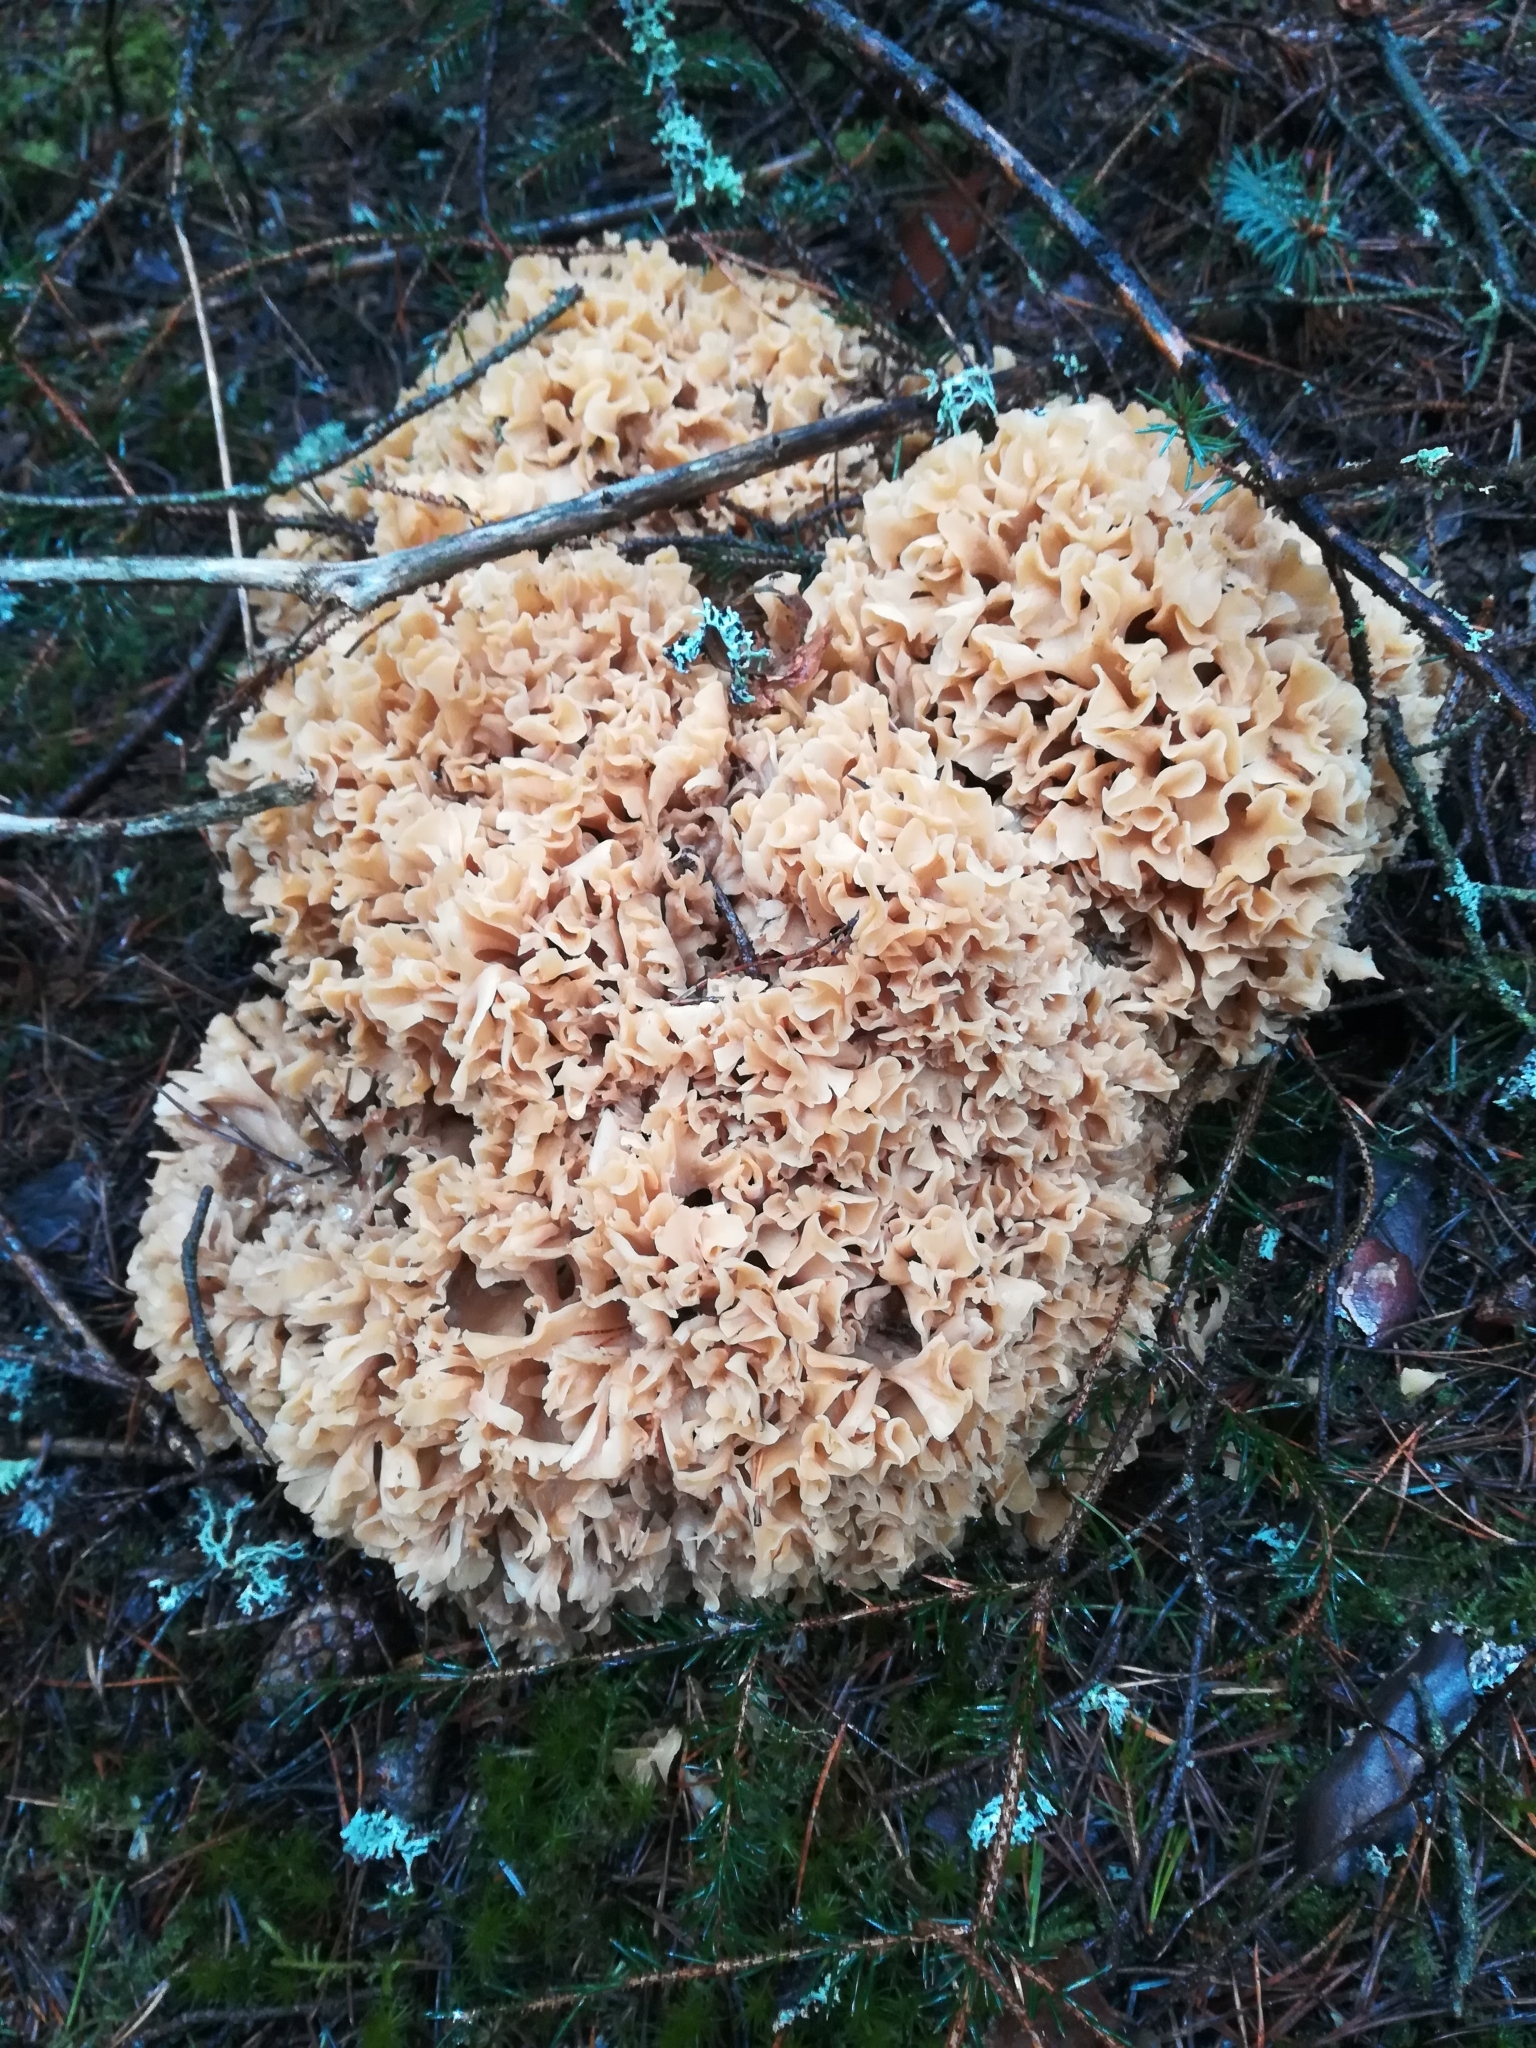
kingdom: Fungi
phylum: Basidiomycota
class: Agaricomycetes
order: Polyporales
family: Sparassidaceae
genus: Sparassis
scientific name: Sparassis crispa
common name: Brain fungus
